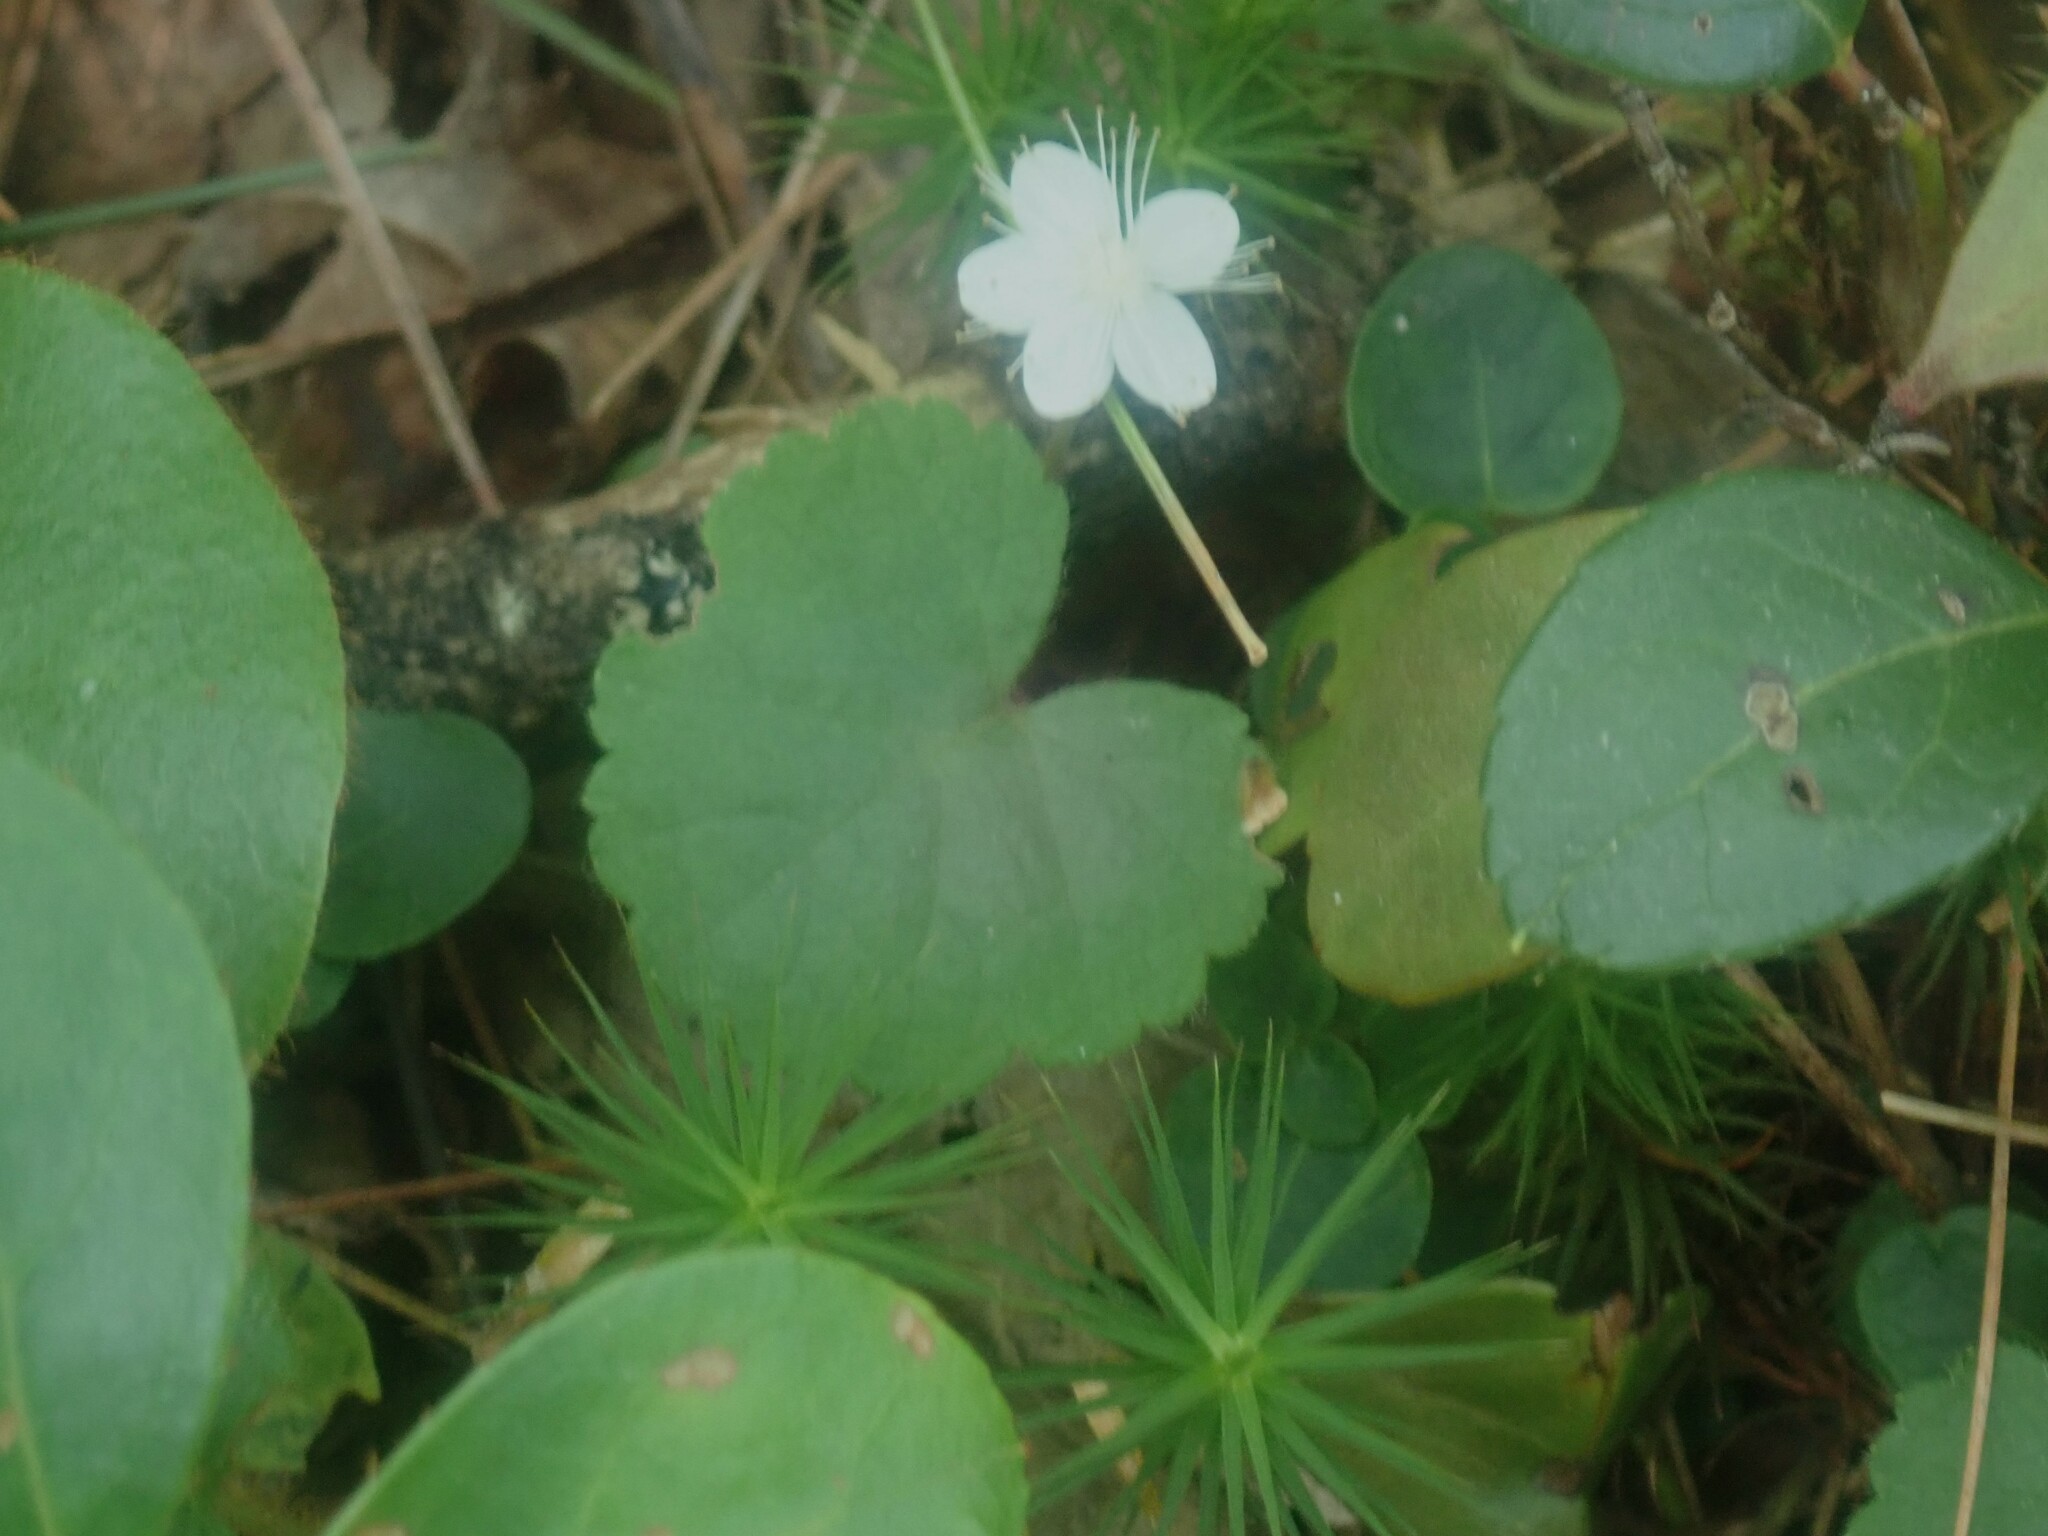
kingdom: Plantae
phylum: Tracheophyta
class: Magnoliopsida
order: Rosales
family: Rosaceae
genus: Dalibarda
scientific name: Dalibarda repens
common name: Dewdrop
